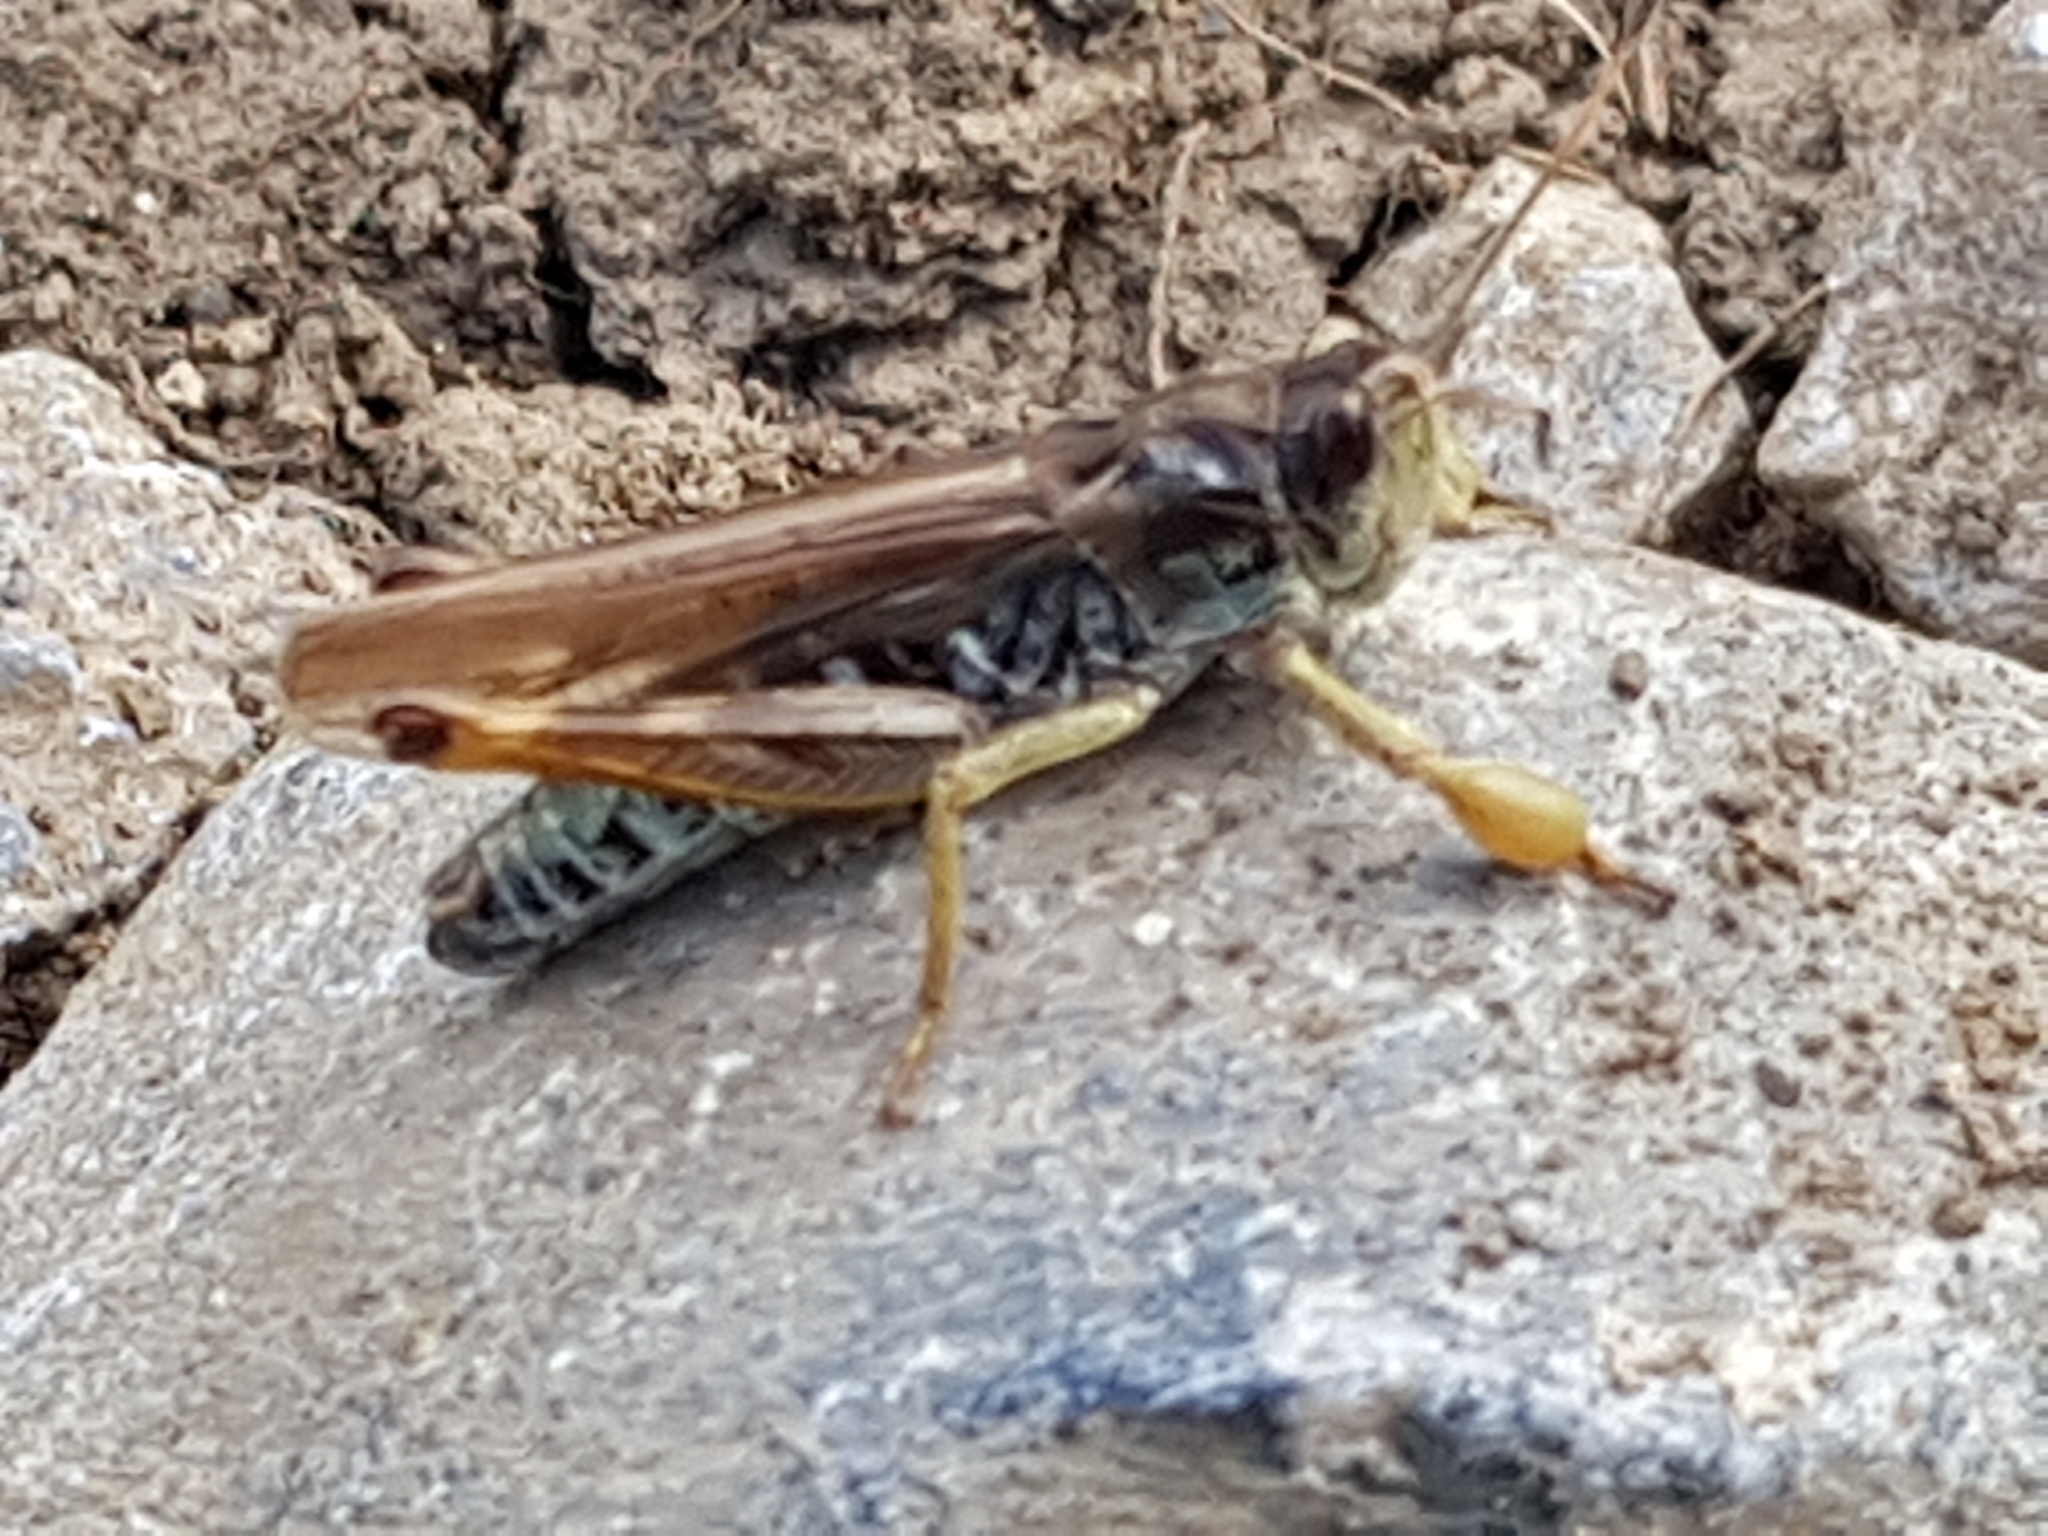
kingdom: Animalia
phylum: Arthropoda
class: Insecta
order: Orthoptera
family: Acrididae
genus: Gomphocerus
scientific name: Gomphocerus sibiricus
